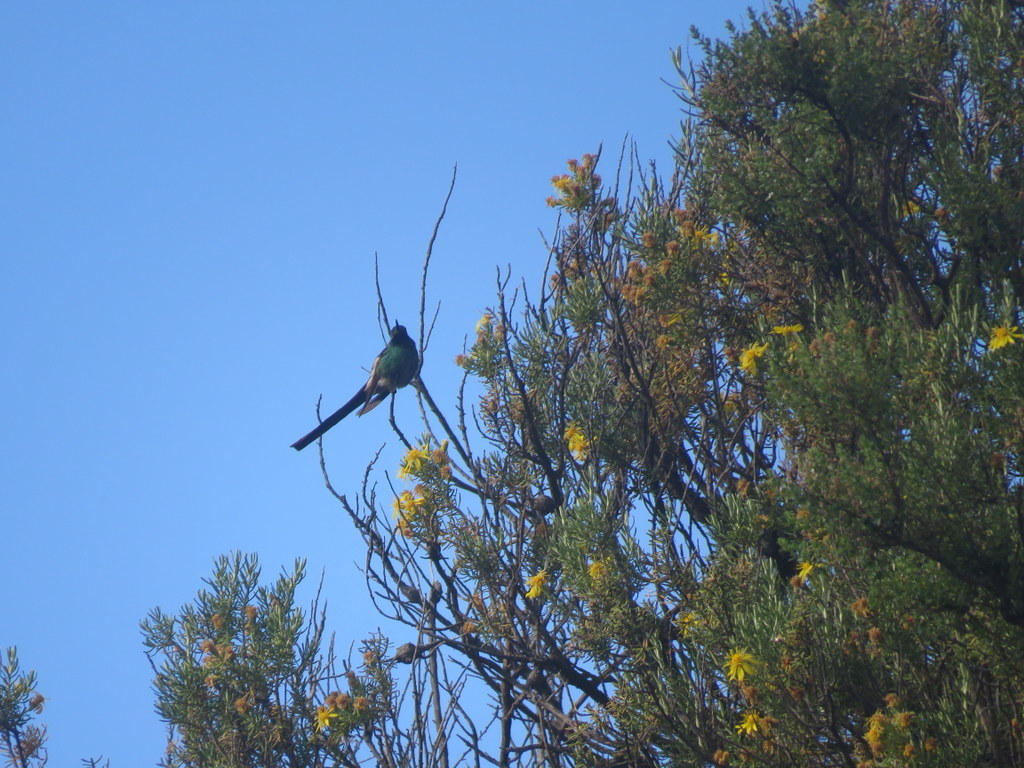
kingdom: Animalia
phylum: Chordata
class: Aves
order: Apodiformes
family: Trochilidae
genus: Sappho
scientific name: Sappho sparganurus
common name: Red-tailed comet
